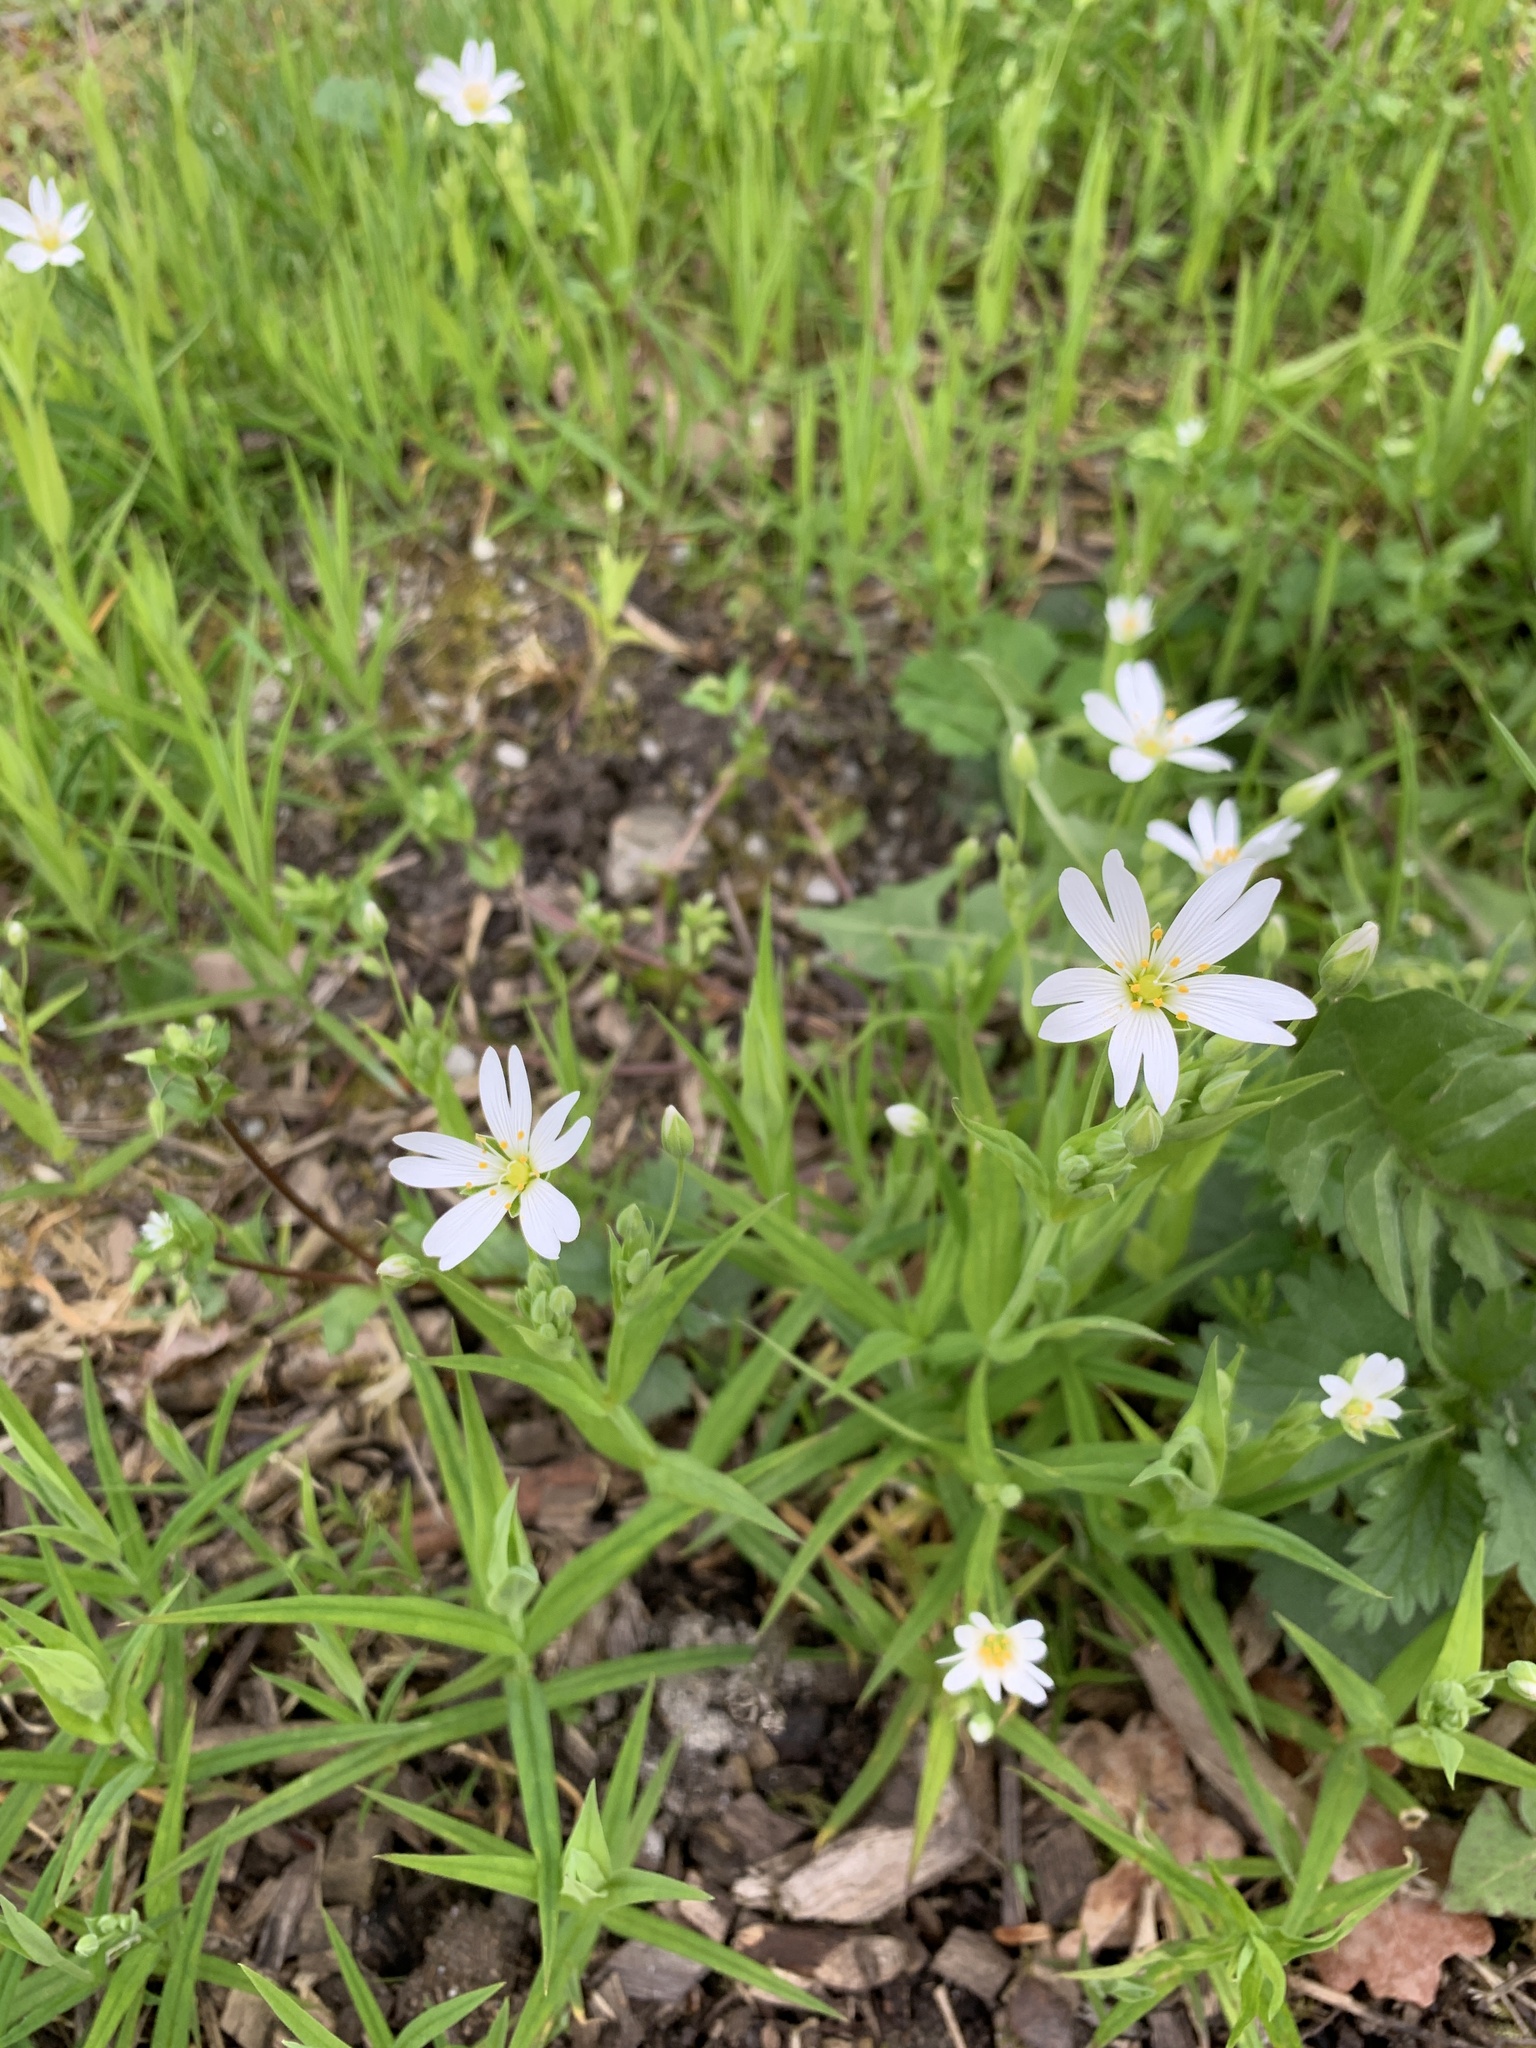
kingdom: Plantae
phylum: Tracheophyta
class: Magnoliopsida
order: Caryophyllales
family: Caryophyllaceae
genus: Rabelera
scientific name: Rabelera holostea
